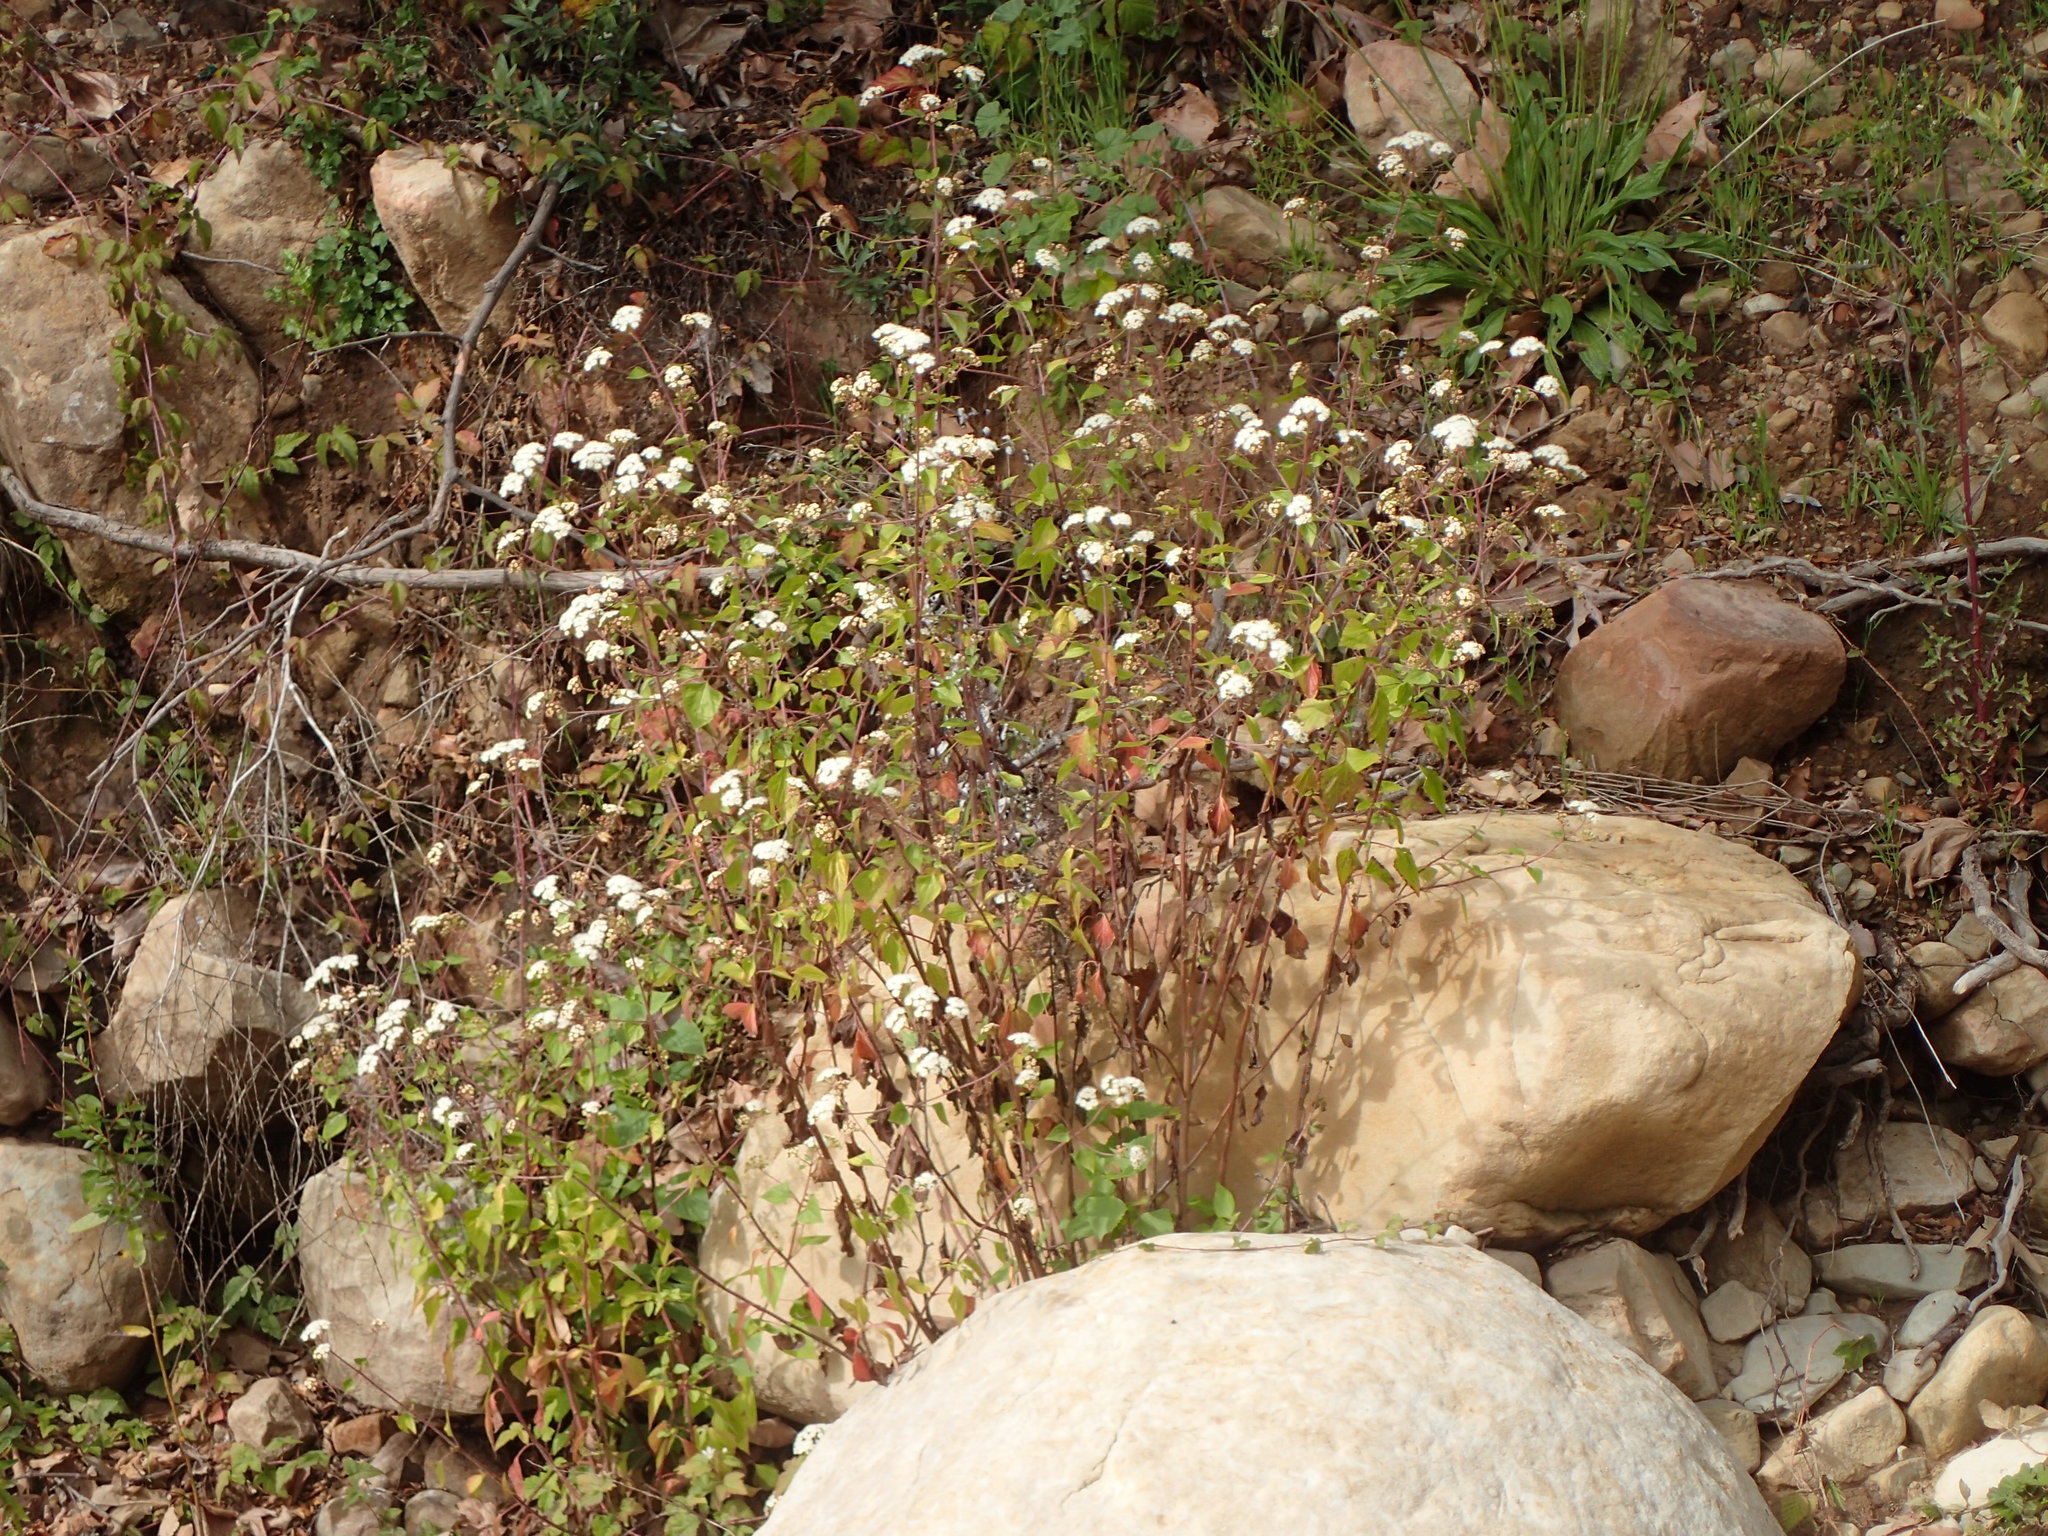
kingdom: Plantae
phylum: Tracheophyta
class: Magnoliopsida
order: Asterales
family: Asteraceae
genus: Ageratina
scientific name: Ageratina adenophora
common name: Sticky snakeroot
